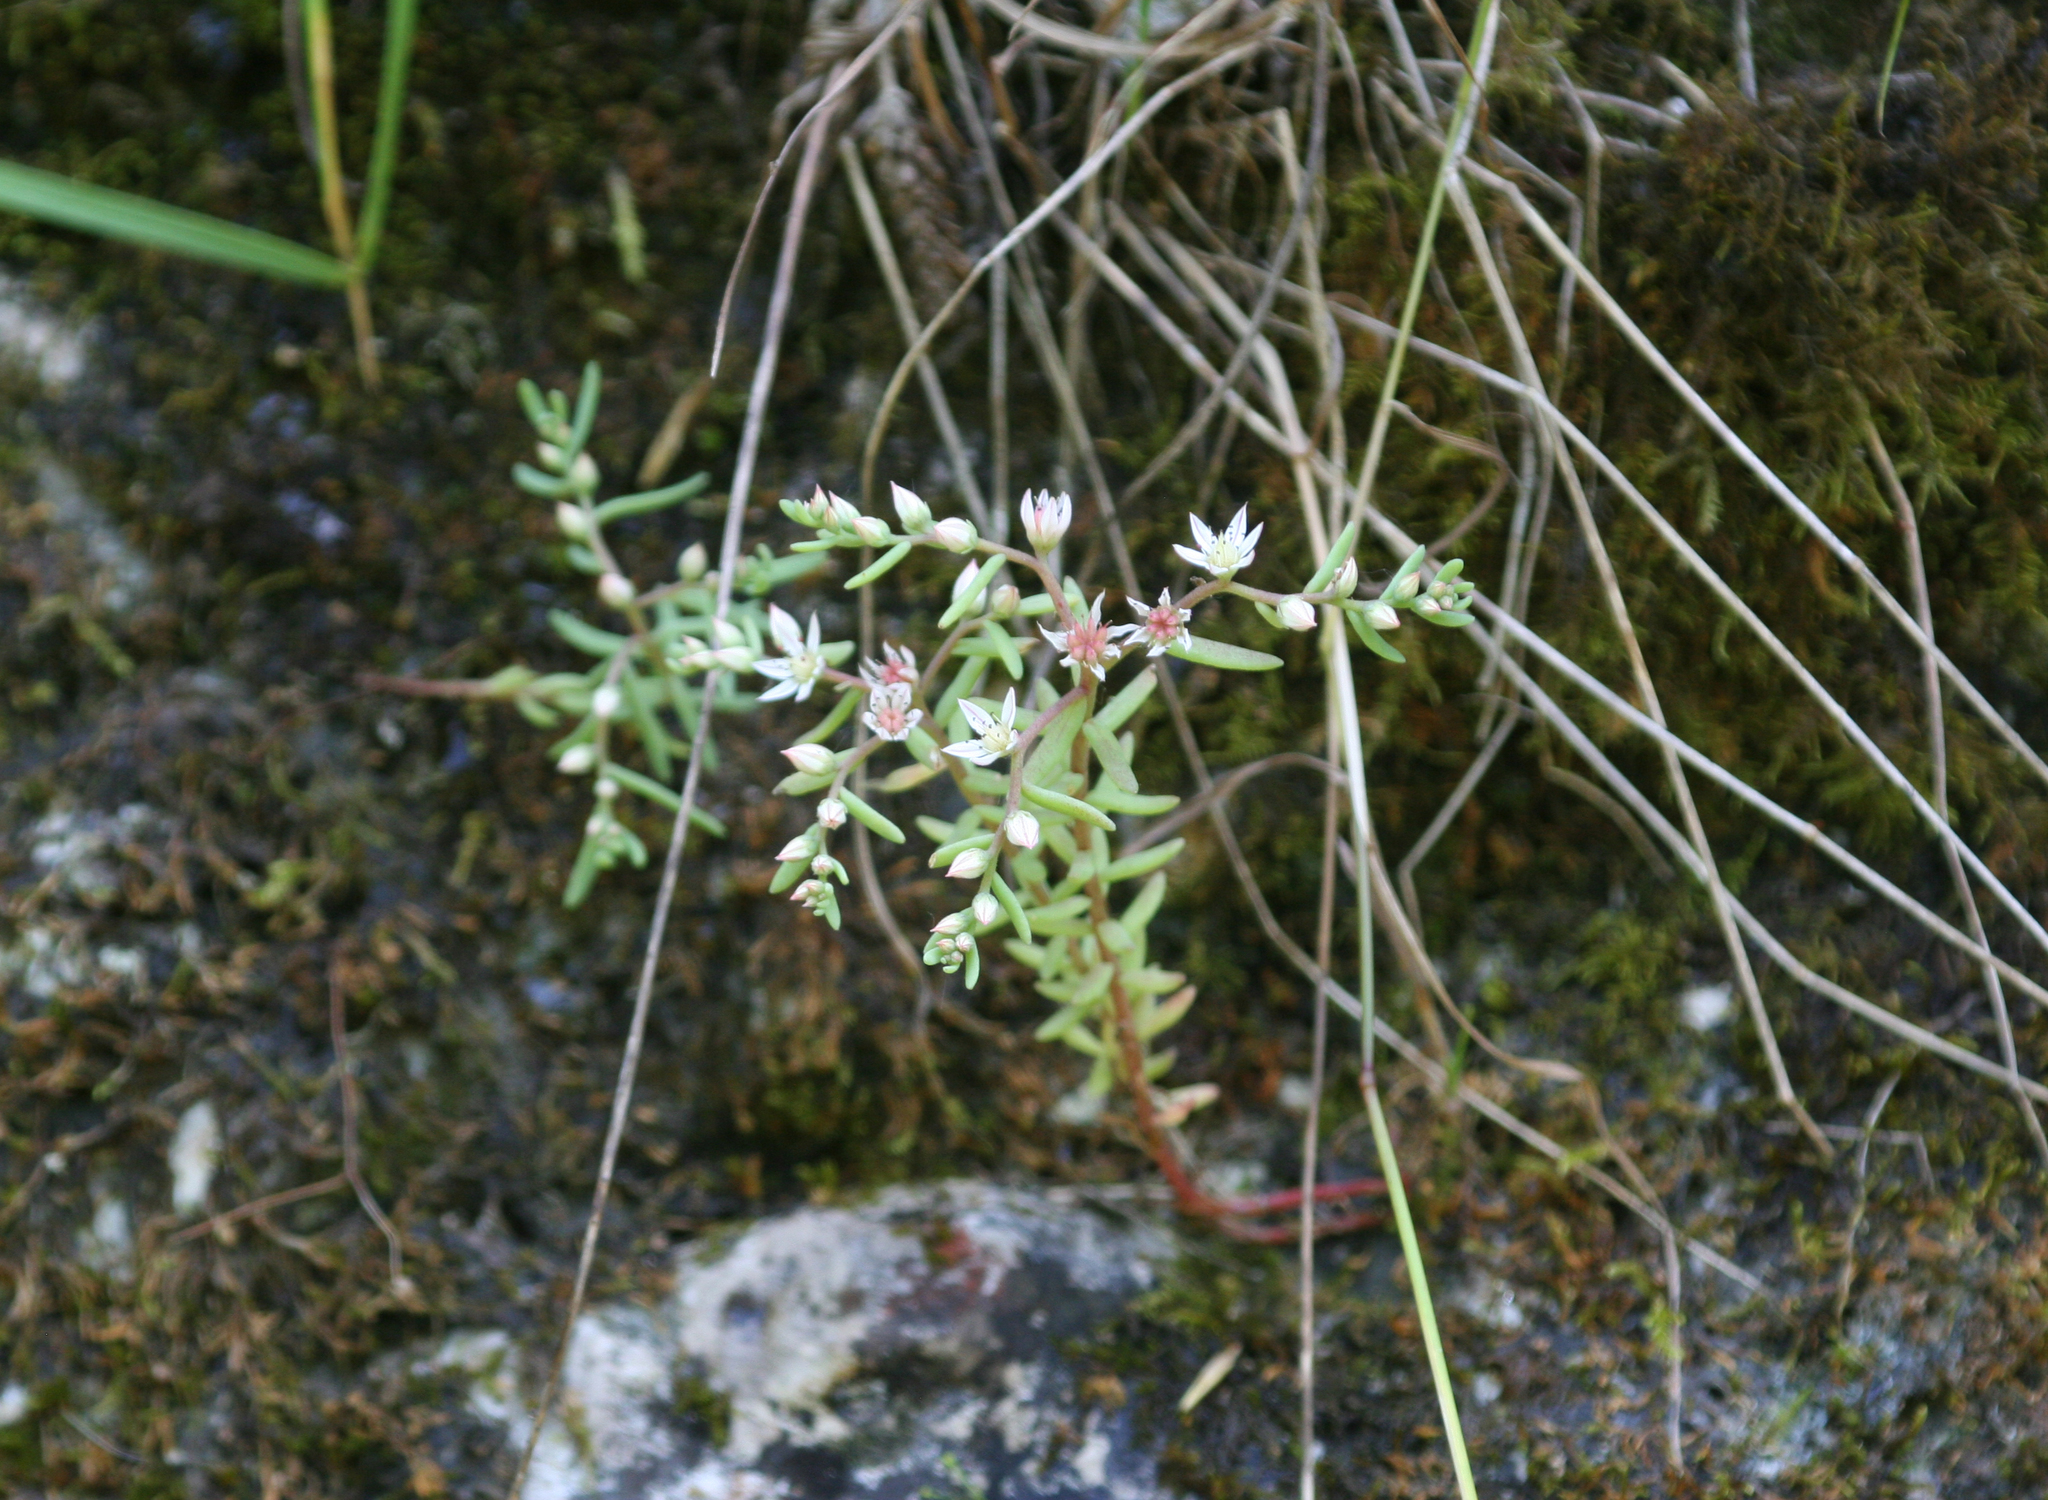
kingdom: Plantae
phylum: Tracheophyta
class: Magnoliopsida
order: Saxifragales
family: Crassulaceae
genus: Sedum
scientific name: Sedum hispanicum
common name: Spanish stonecrop
